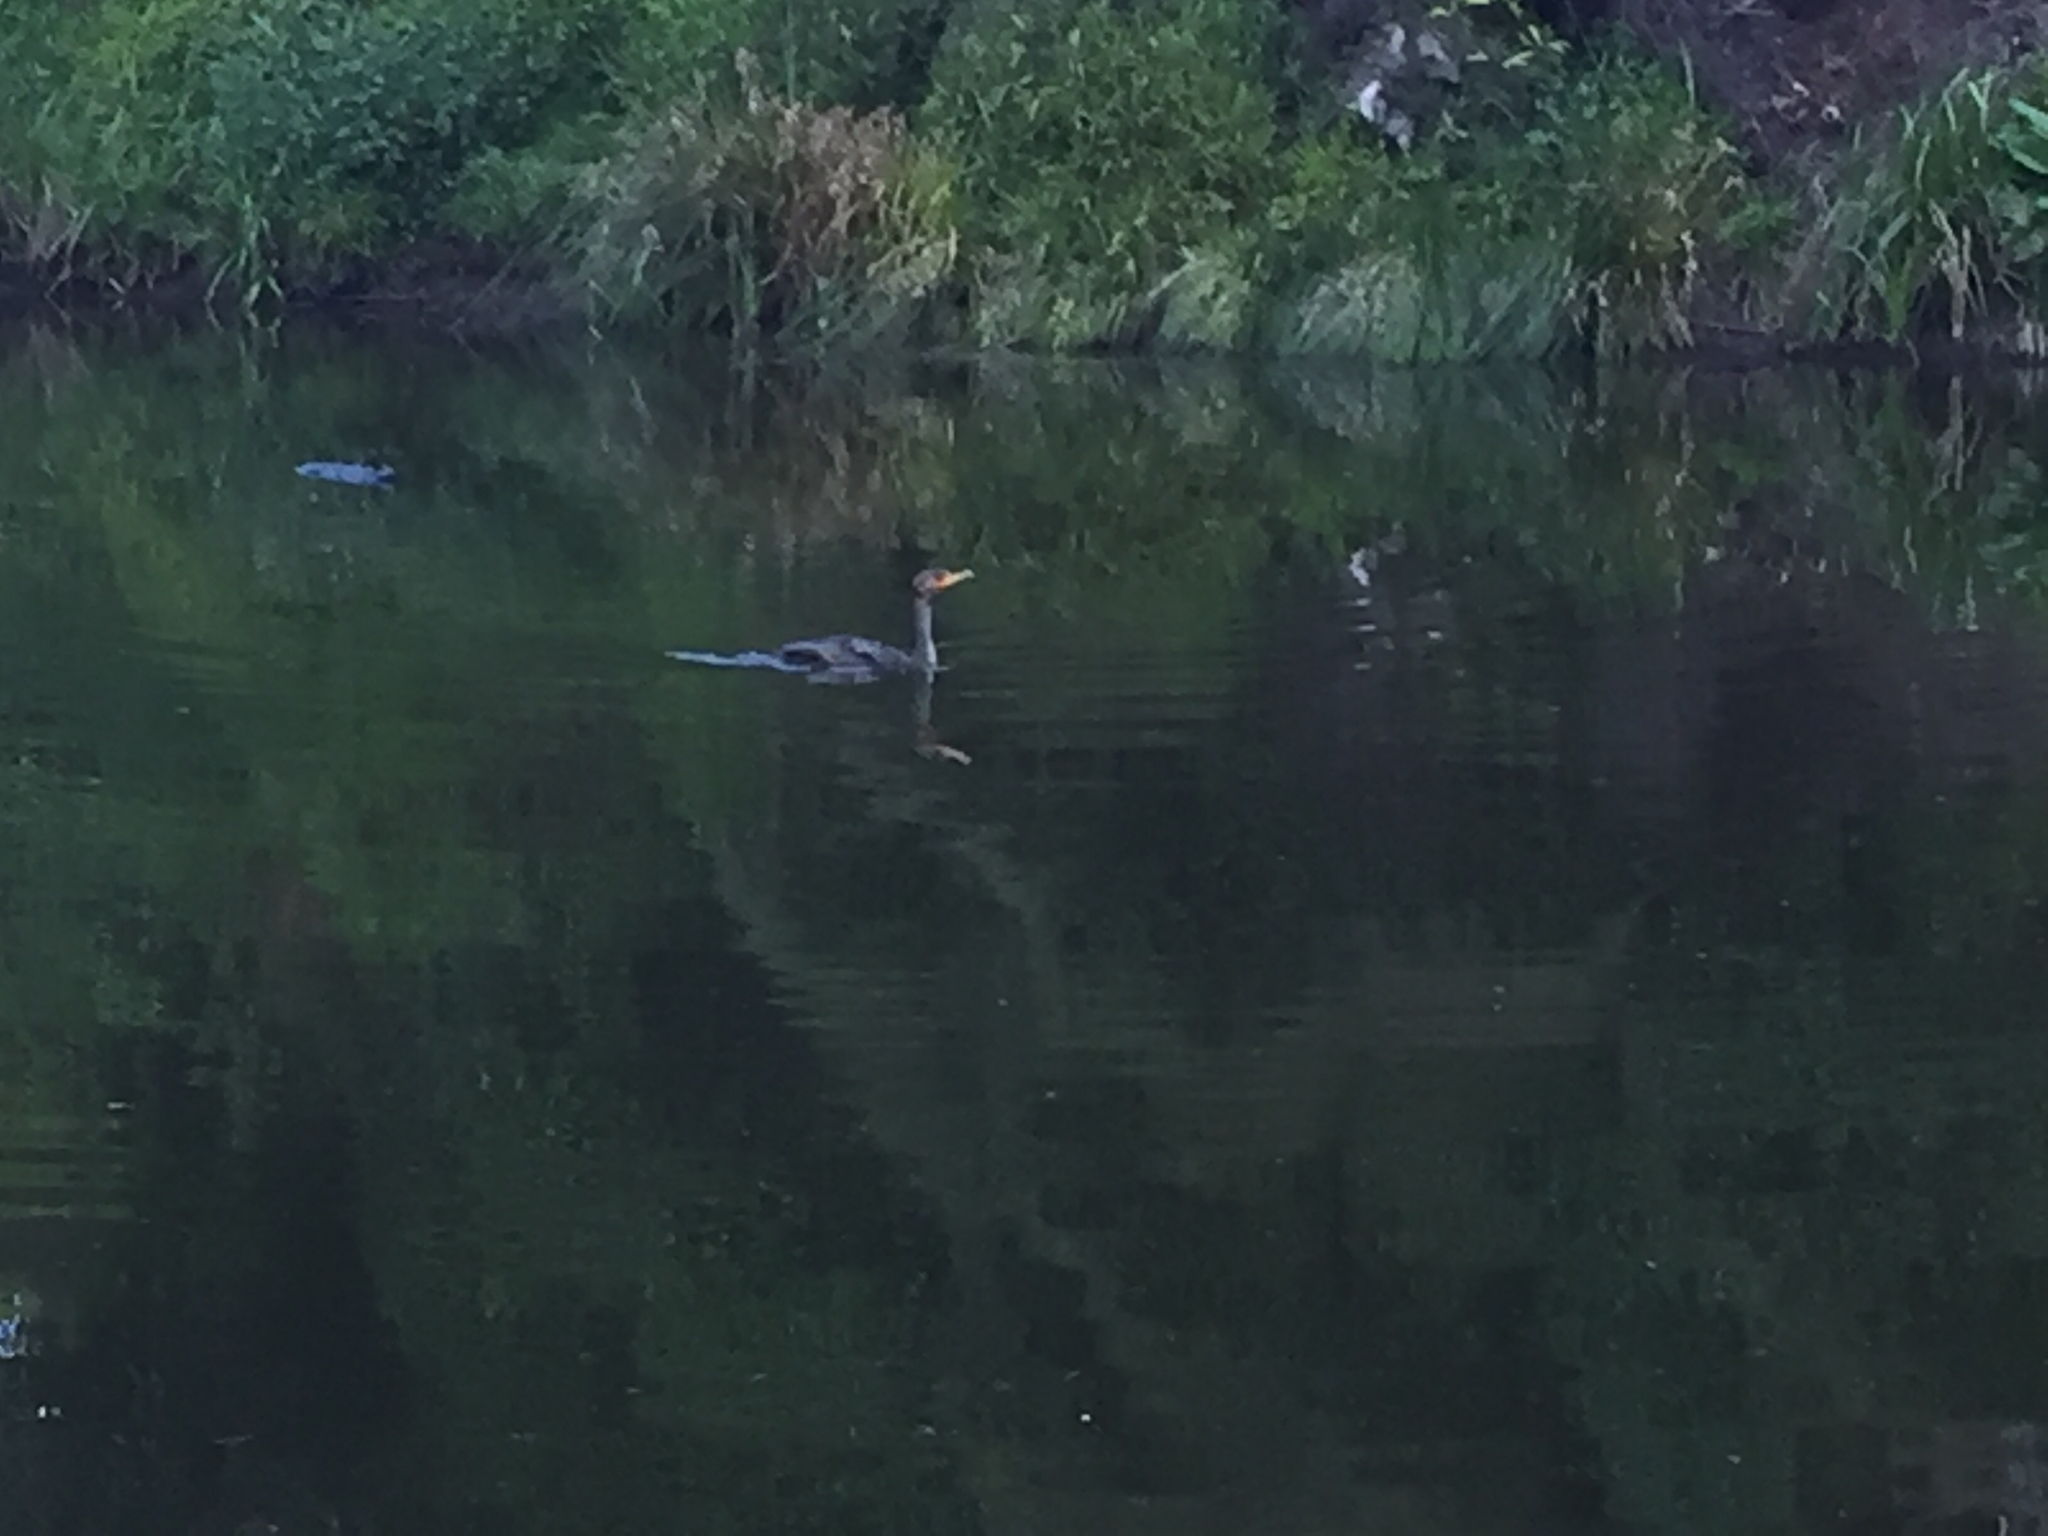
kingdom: Animalia
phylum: Chordata
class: Aves
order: Suliformes
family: Phalacrocoracidae
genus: Phalacrocorax
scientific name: Phalacrocorax auritus
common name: Double-crested cormorant
